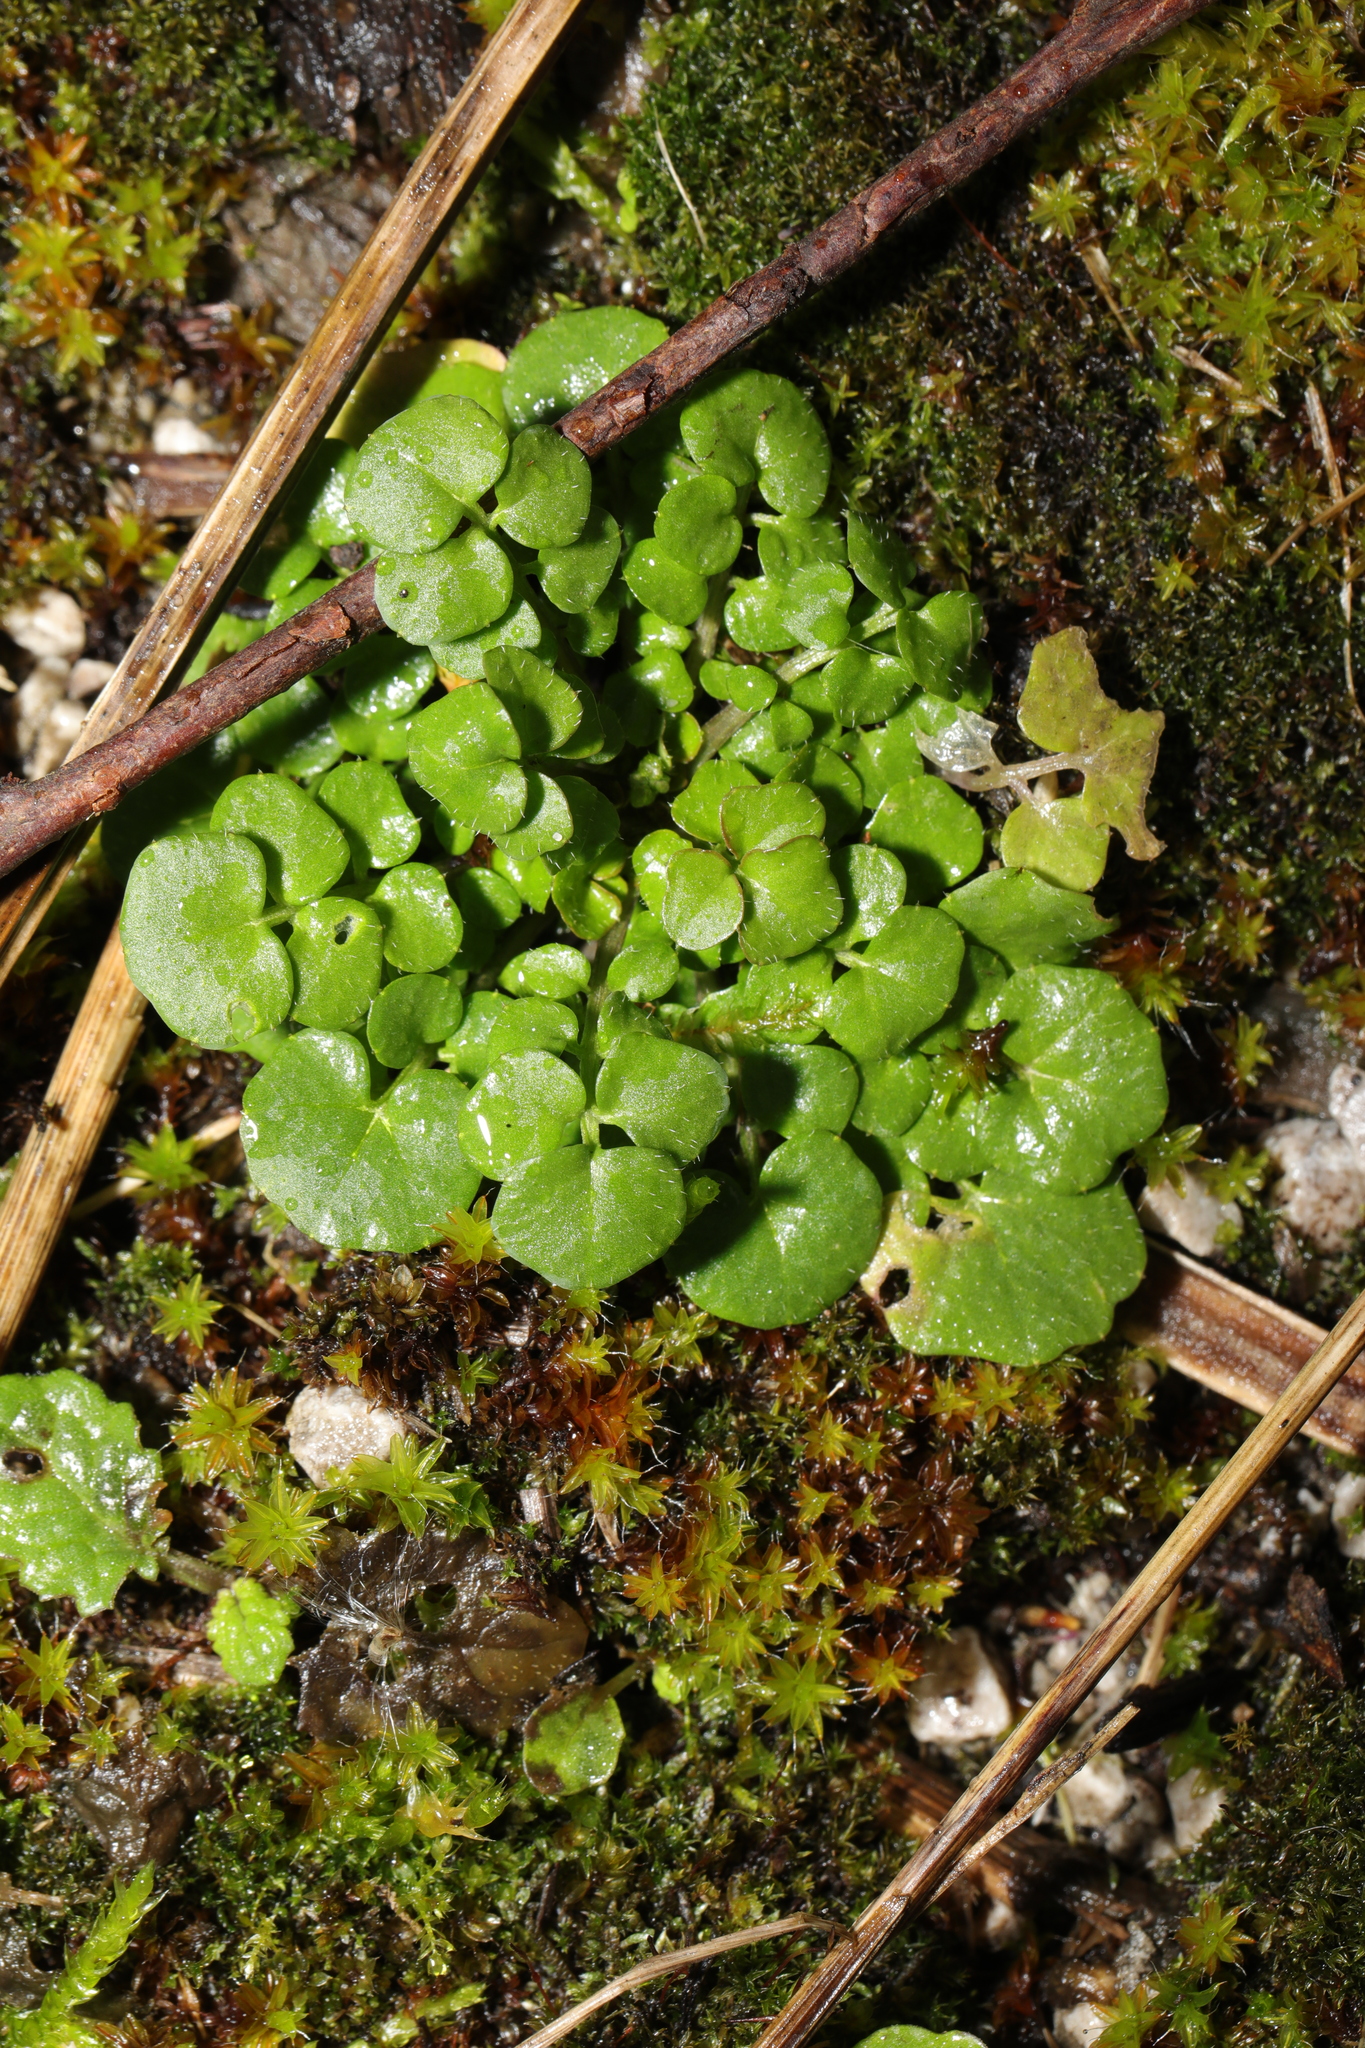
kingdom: Plantae
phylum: Tracheophyta
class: Magnoliopsida
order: Brassicales
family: Brassicaceae
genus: Cardamine
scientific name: Cardamine hirsuta
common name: Hairy bittercress
